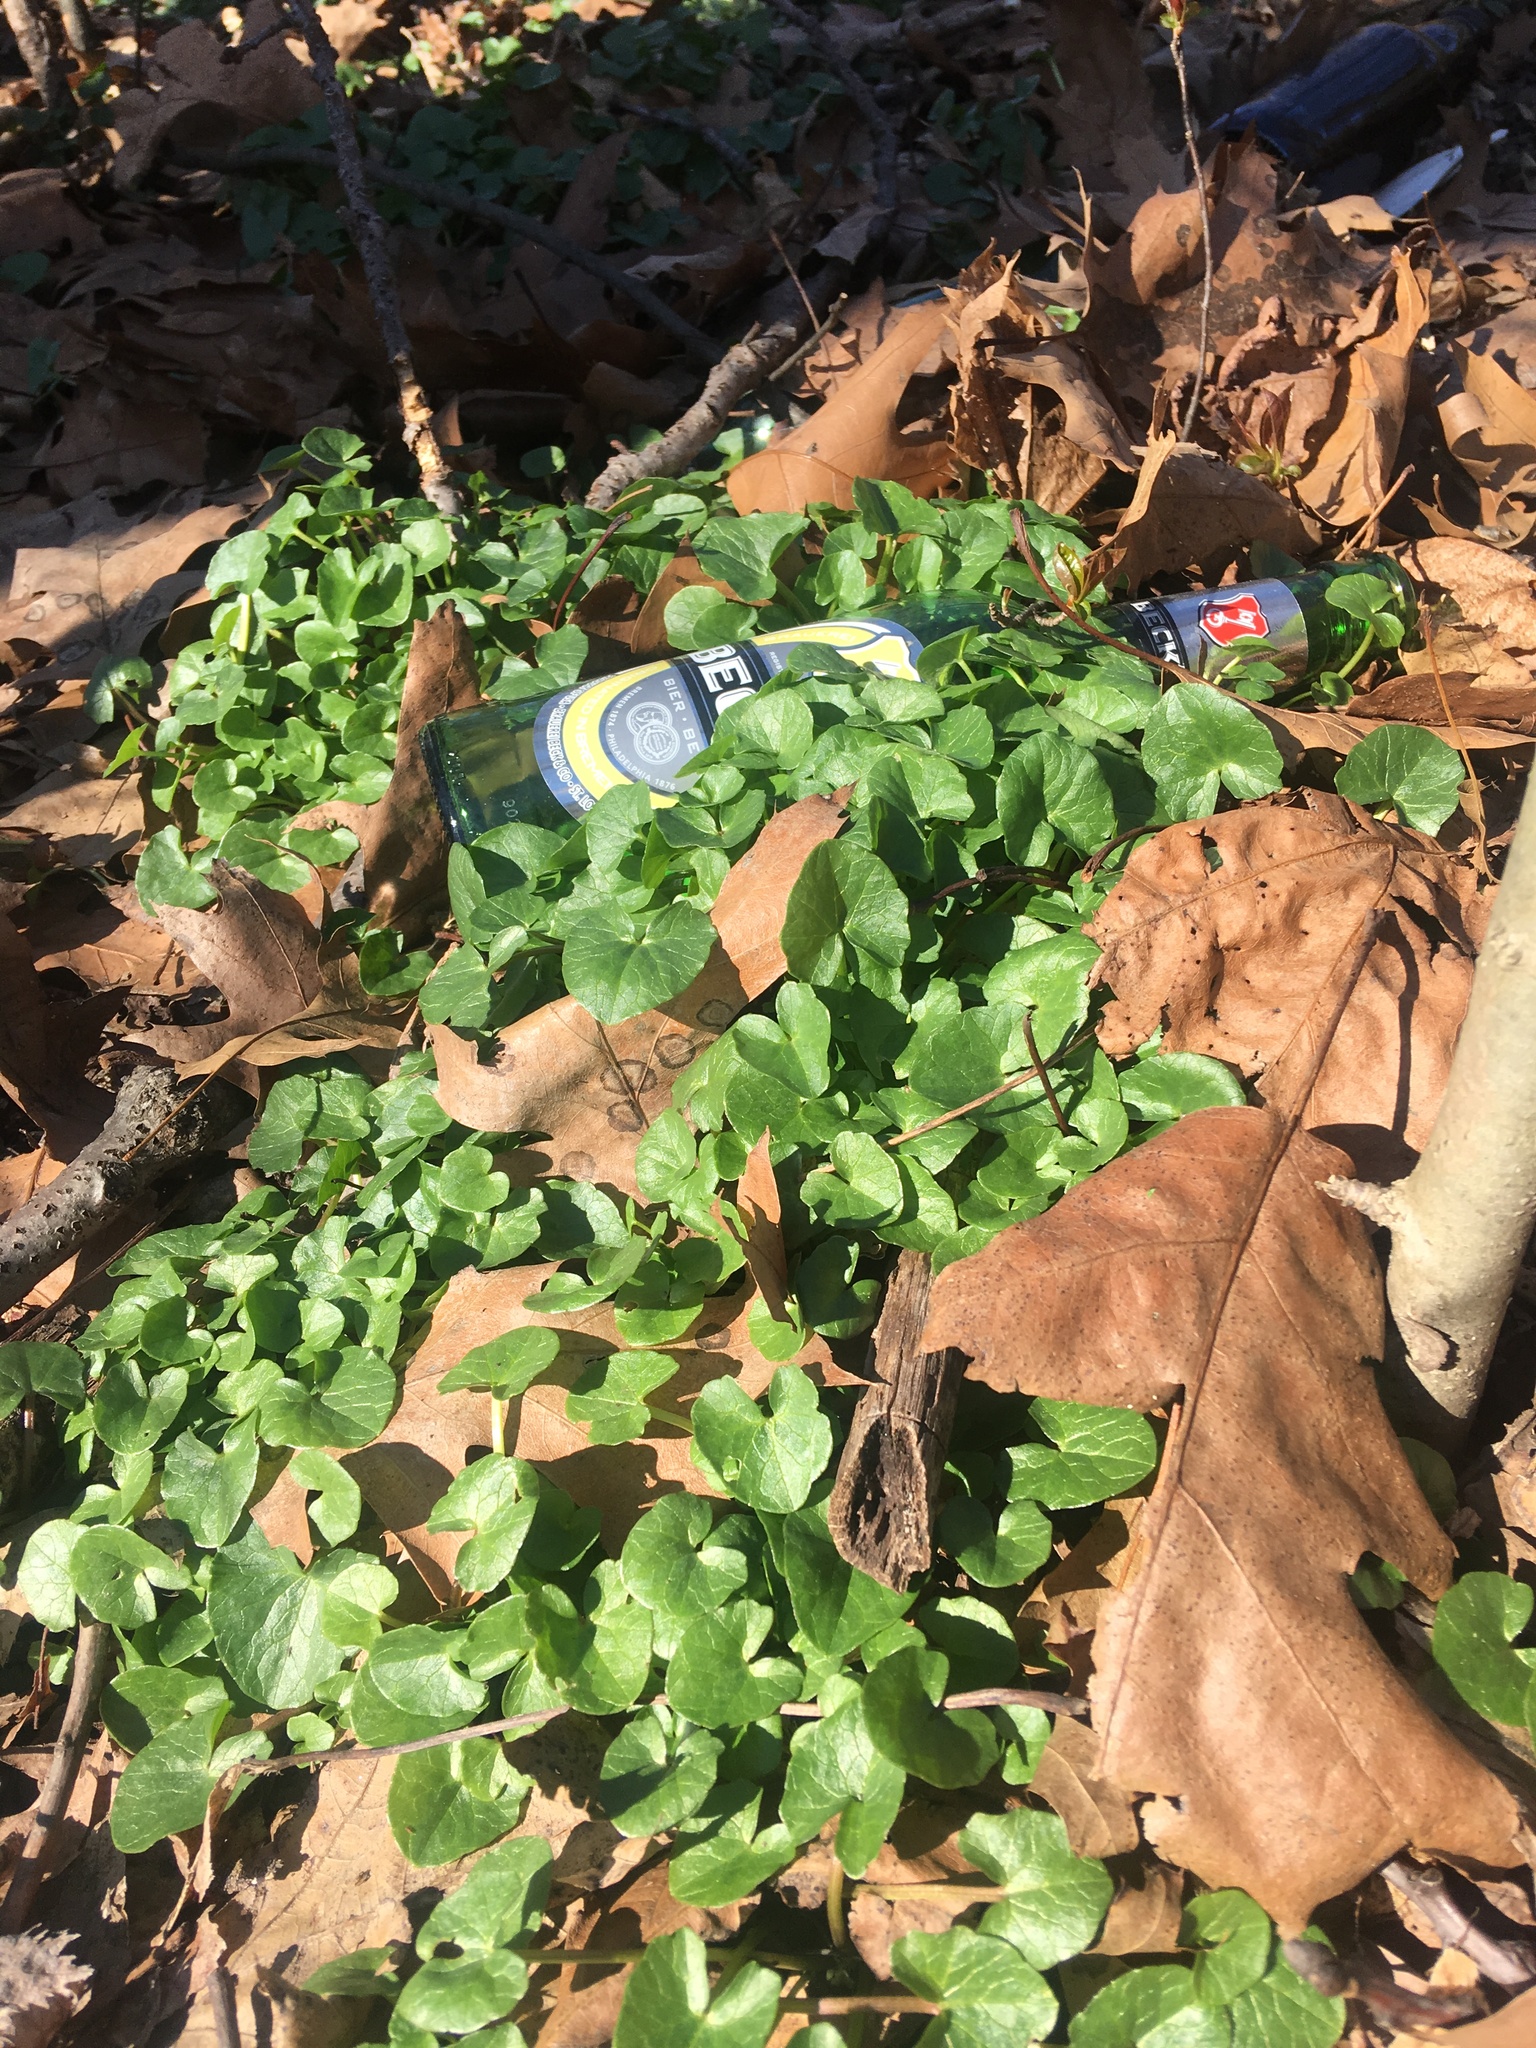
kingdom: Plantae
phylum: Tracheophyta
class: Magnoliopsida
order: Ranunculales
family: Ranunculaceae
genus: Ficaria
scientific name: Ficaria verna
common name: Lesser celandine
